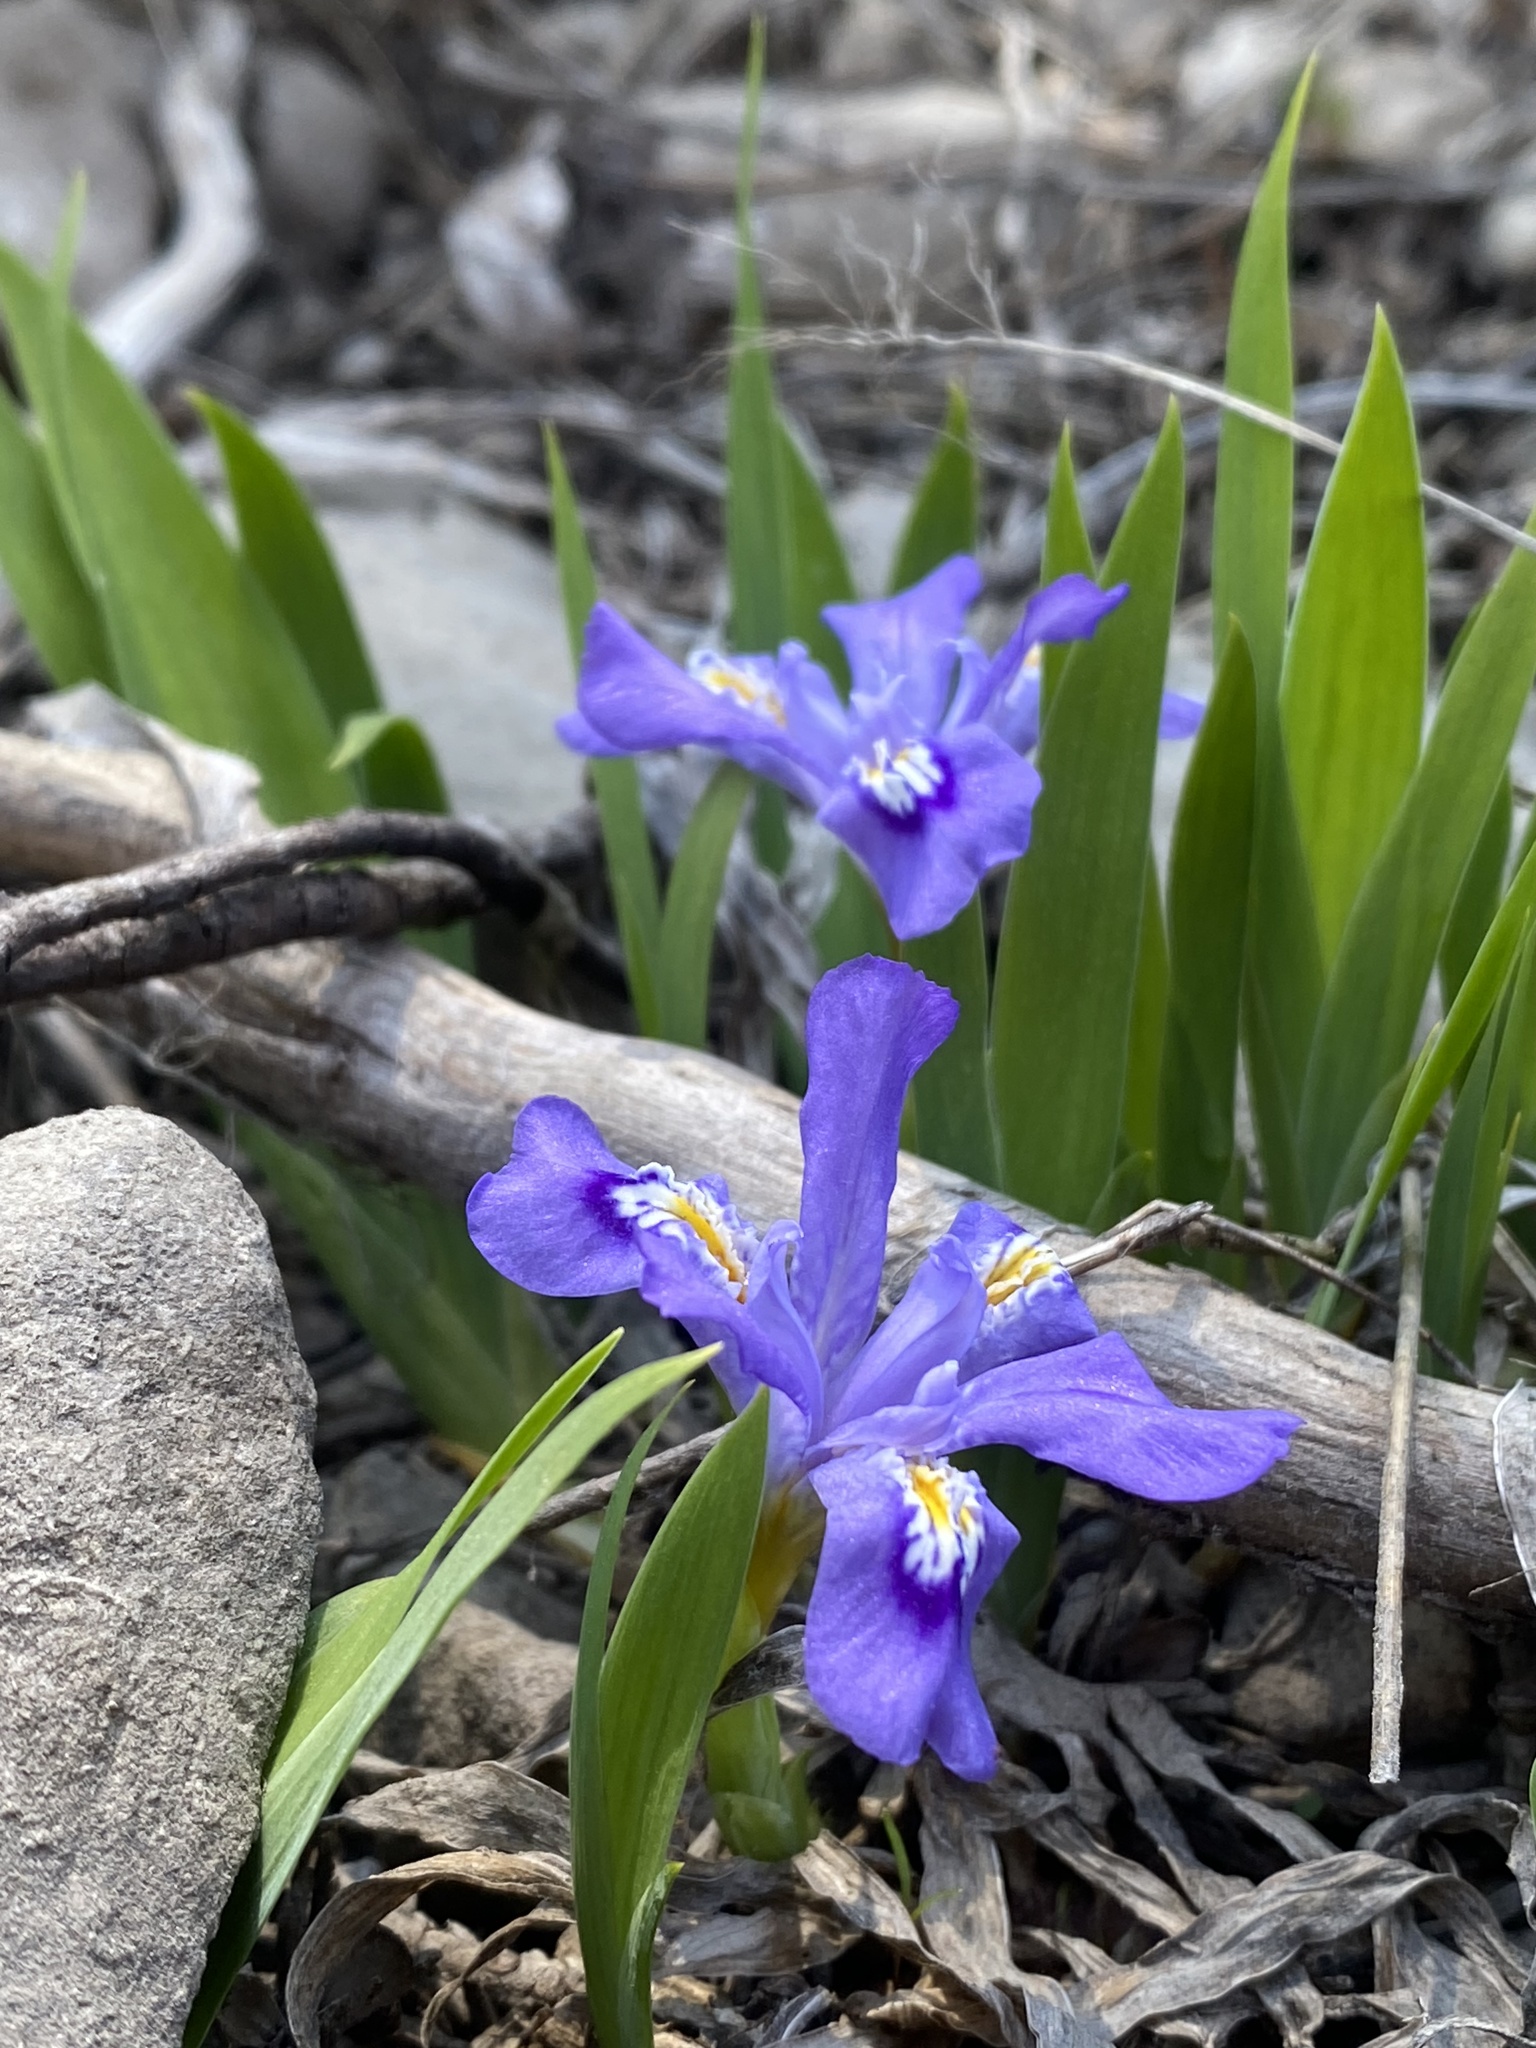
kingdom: Plantae
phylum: Tracheophyta
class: Liliopsida
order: Asparagales
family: Iridaceae
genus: Iris
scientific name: Iris lacustris
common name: Dwarf lake iris
